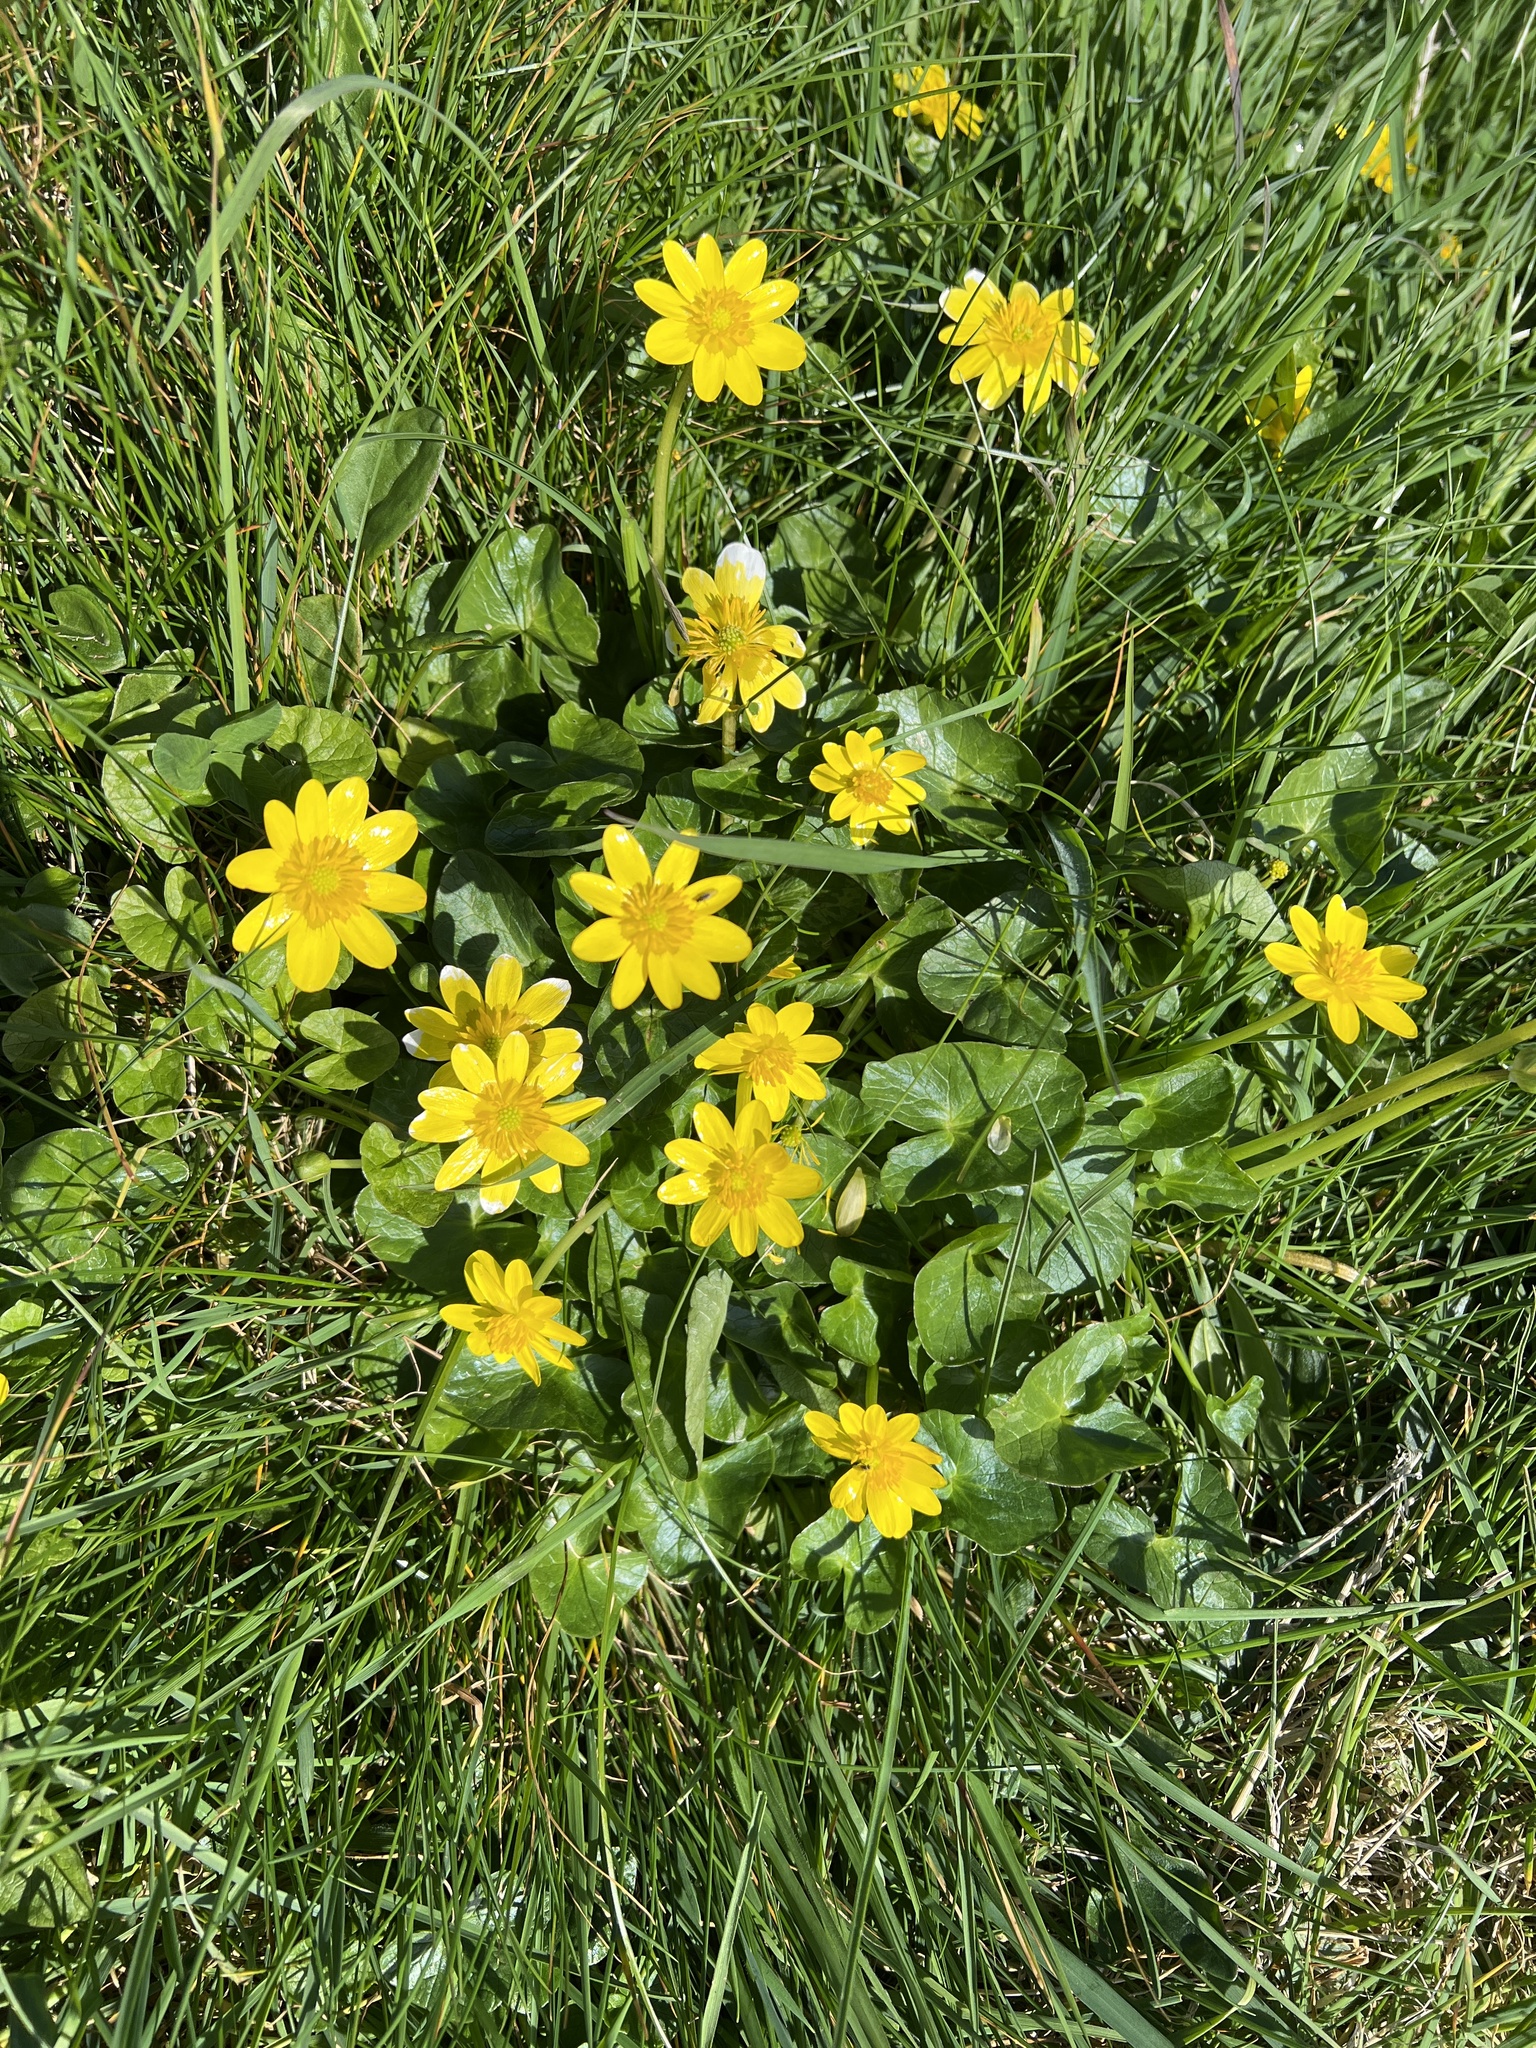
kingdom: Plantae
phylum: Tracheophyta
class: Magnoliopsida
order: Ranunculales
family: Ranunculaceae
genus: Ficaria
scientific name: Ficaria verna
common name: Lesser celandine
